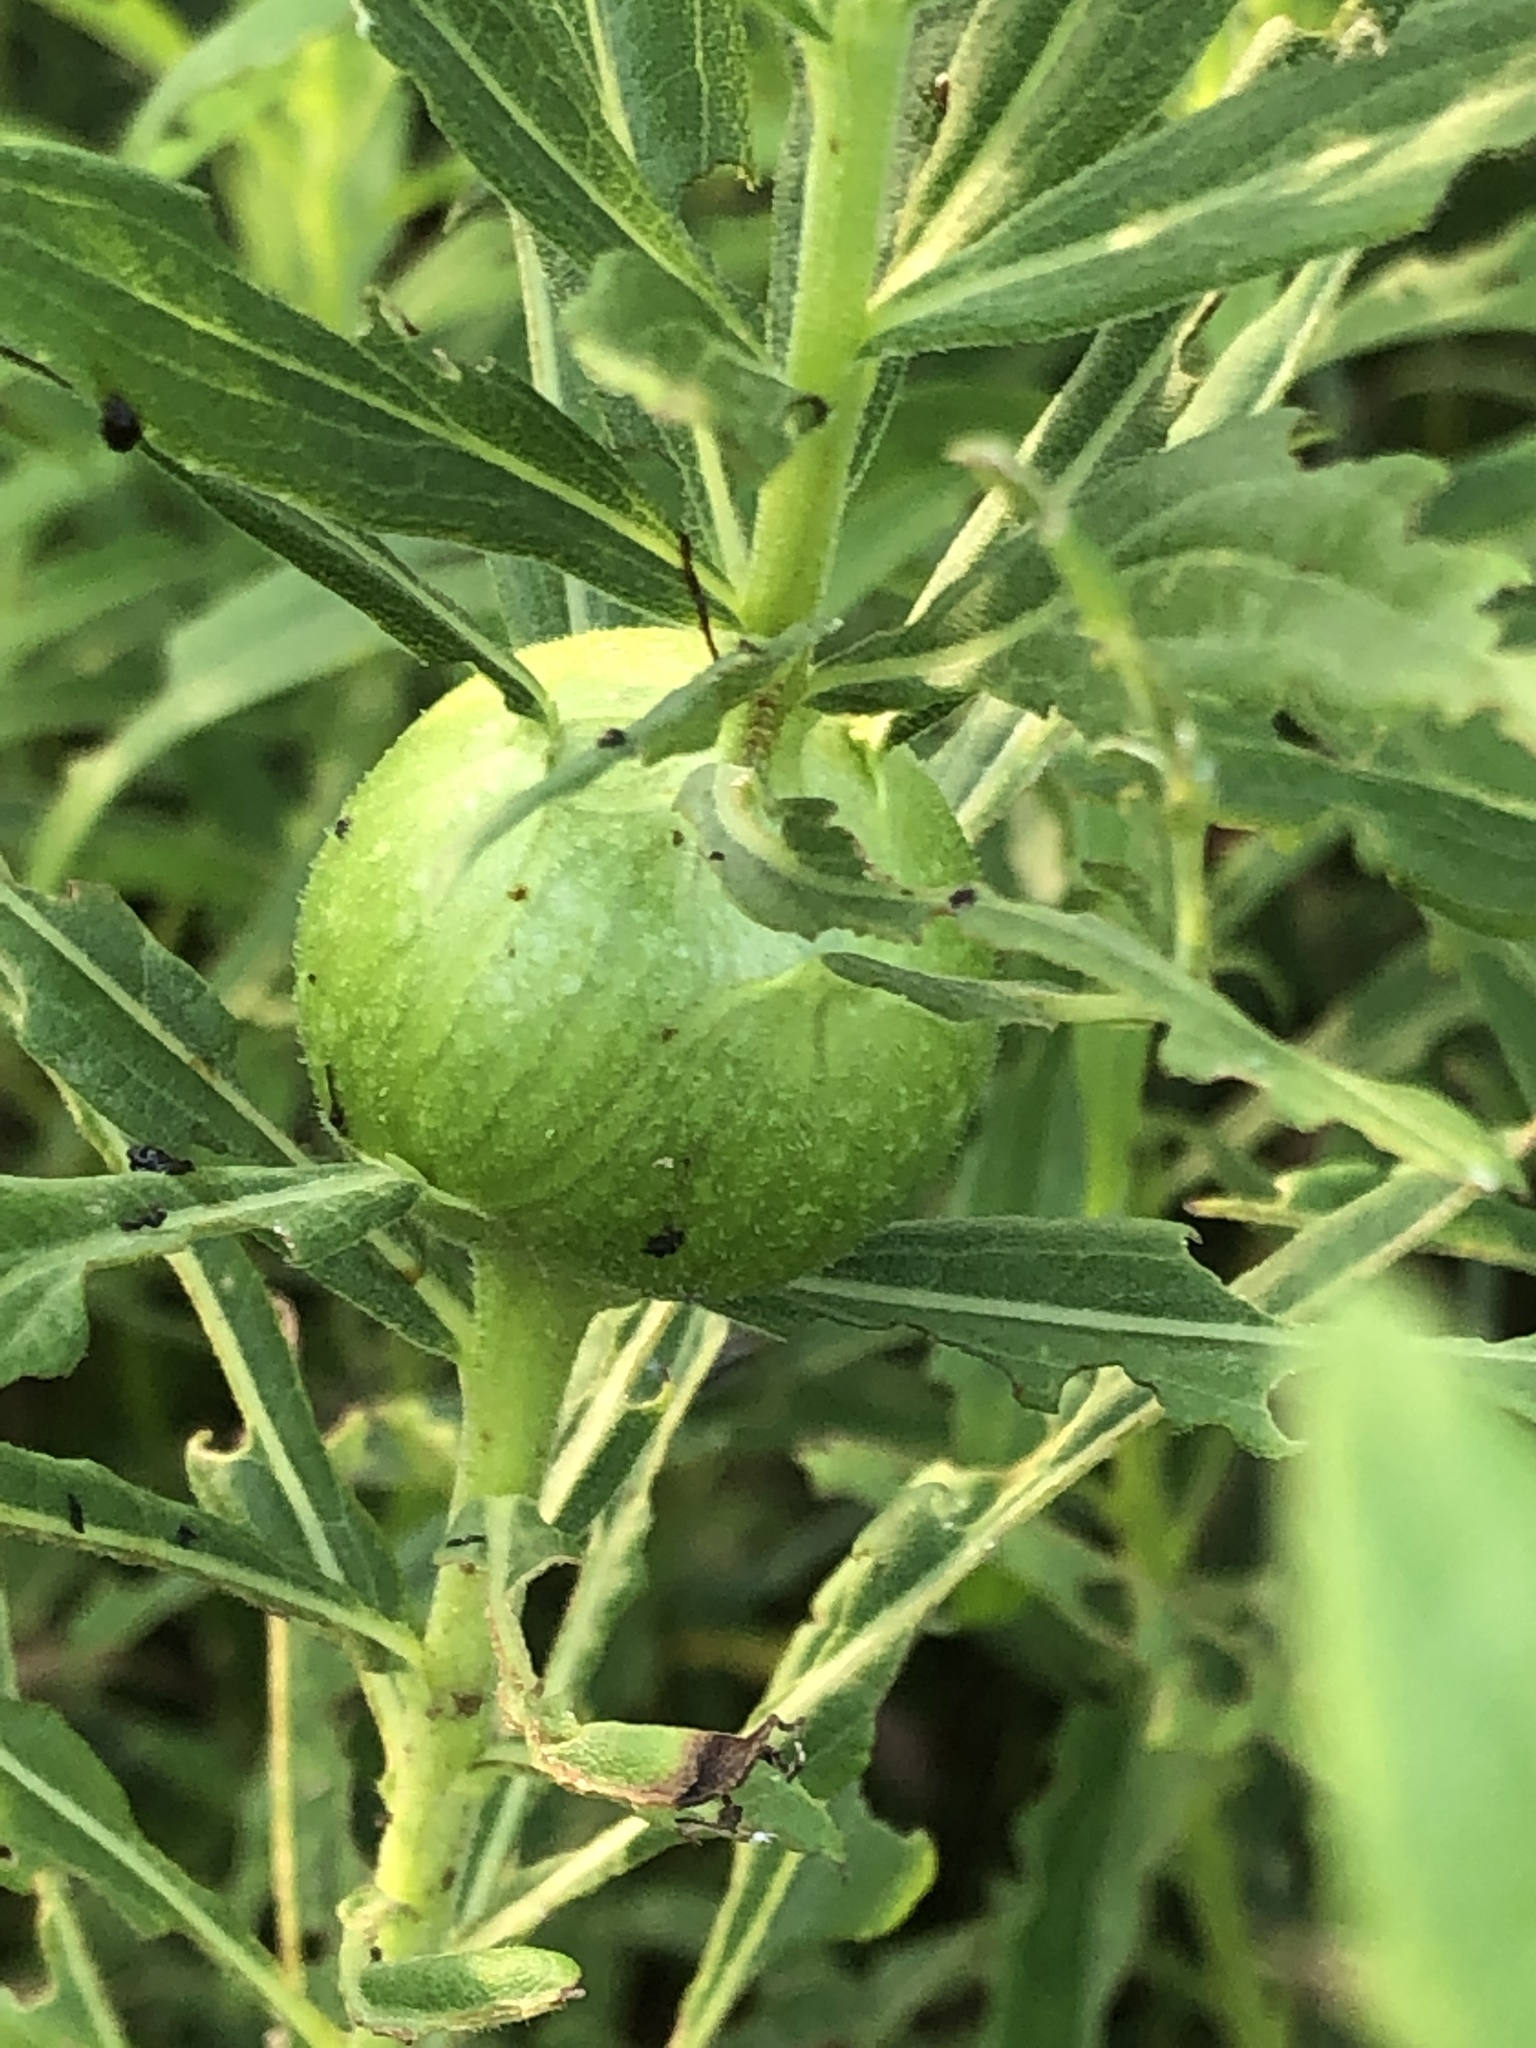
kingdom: Animalia
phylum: Arthropoda
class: Insecta
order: Diptera
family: Tephritidae
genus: Eurosta
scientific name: Eurosta solidaginis
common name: Goldenrod gall fly
